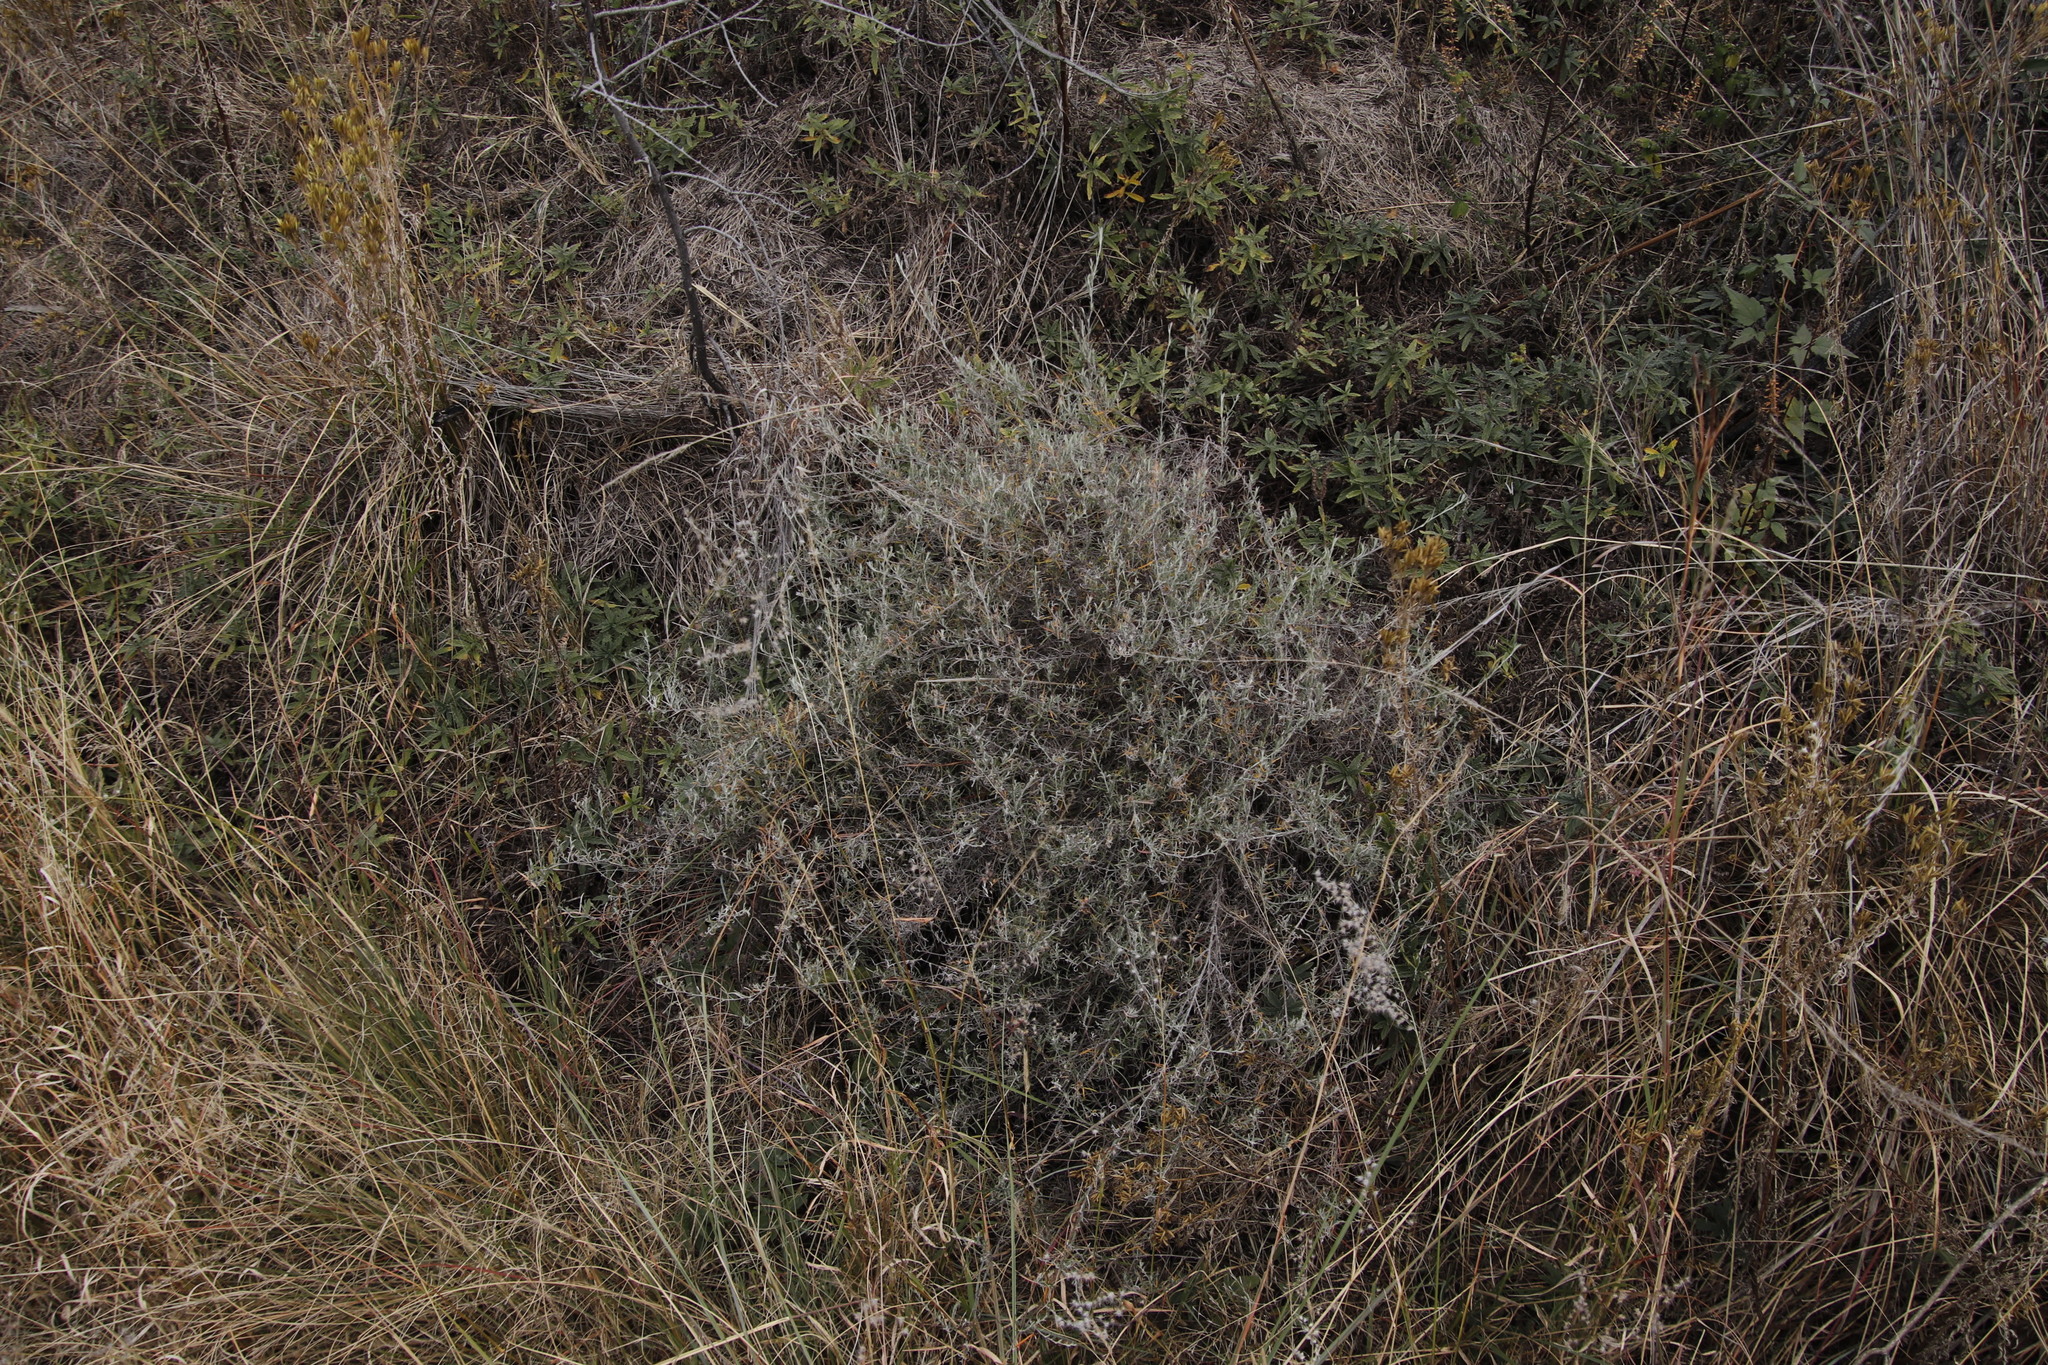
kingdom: Plantae
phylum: Tracheophyta
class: Magnoliopsida
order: Asterales
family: Asteraceae
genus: Athrixia
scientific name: Athrixia elata
